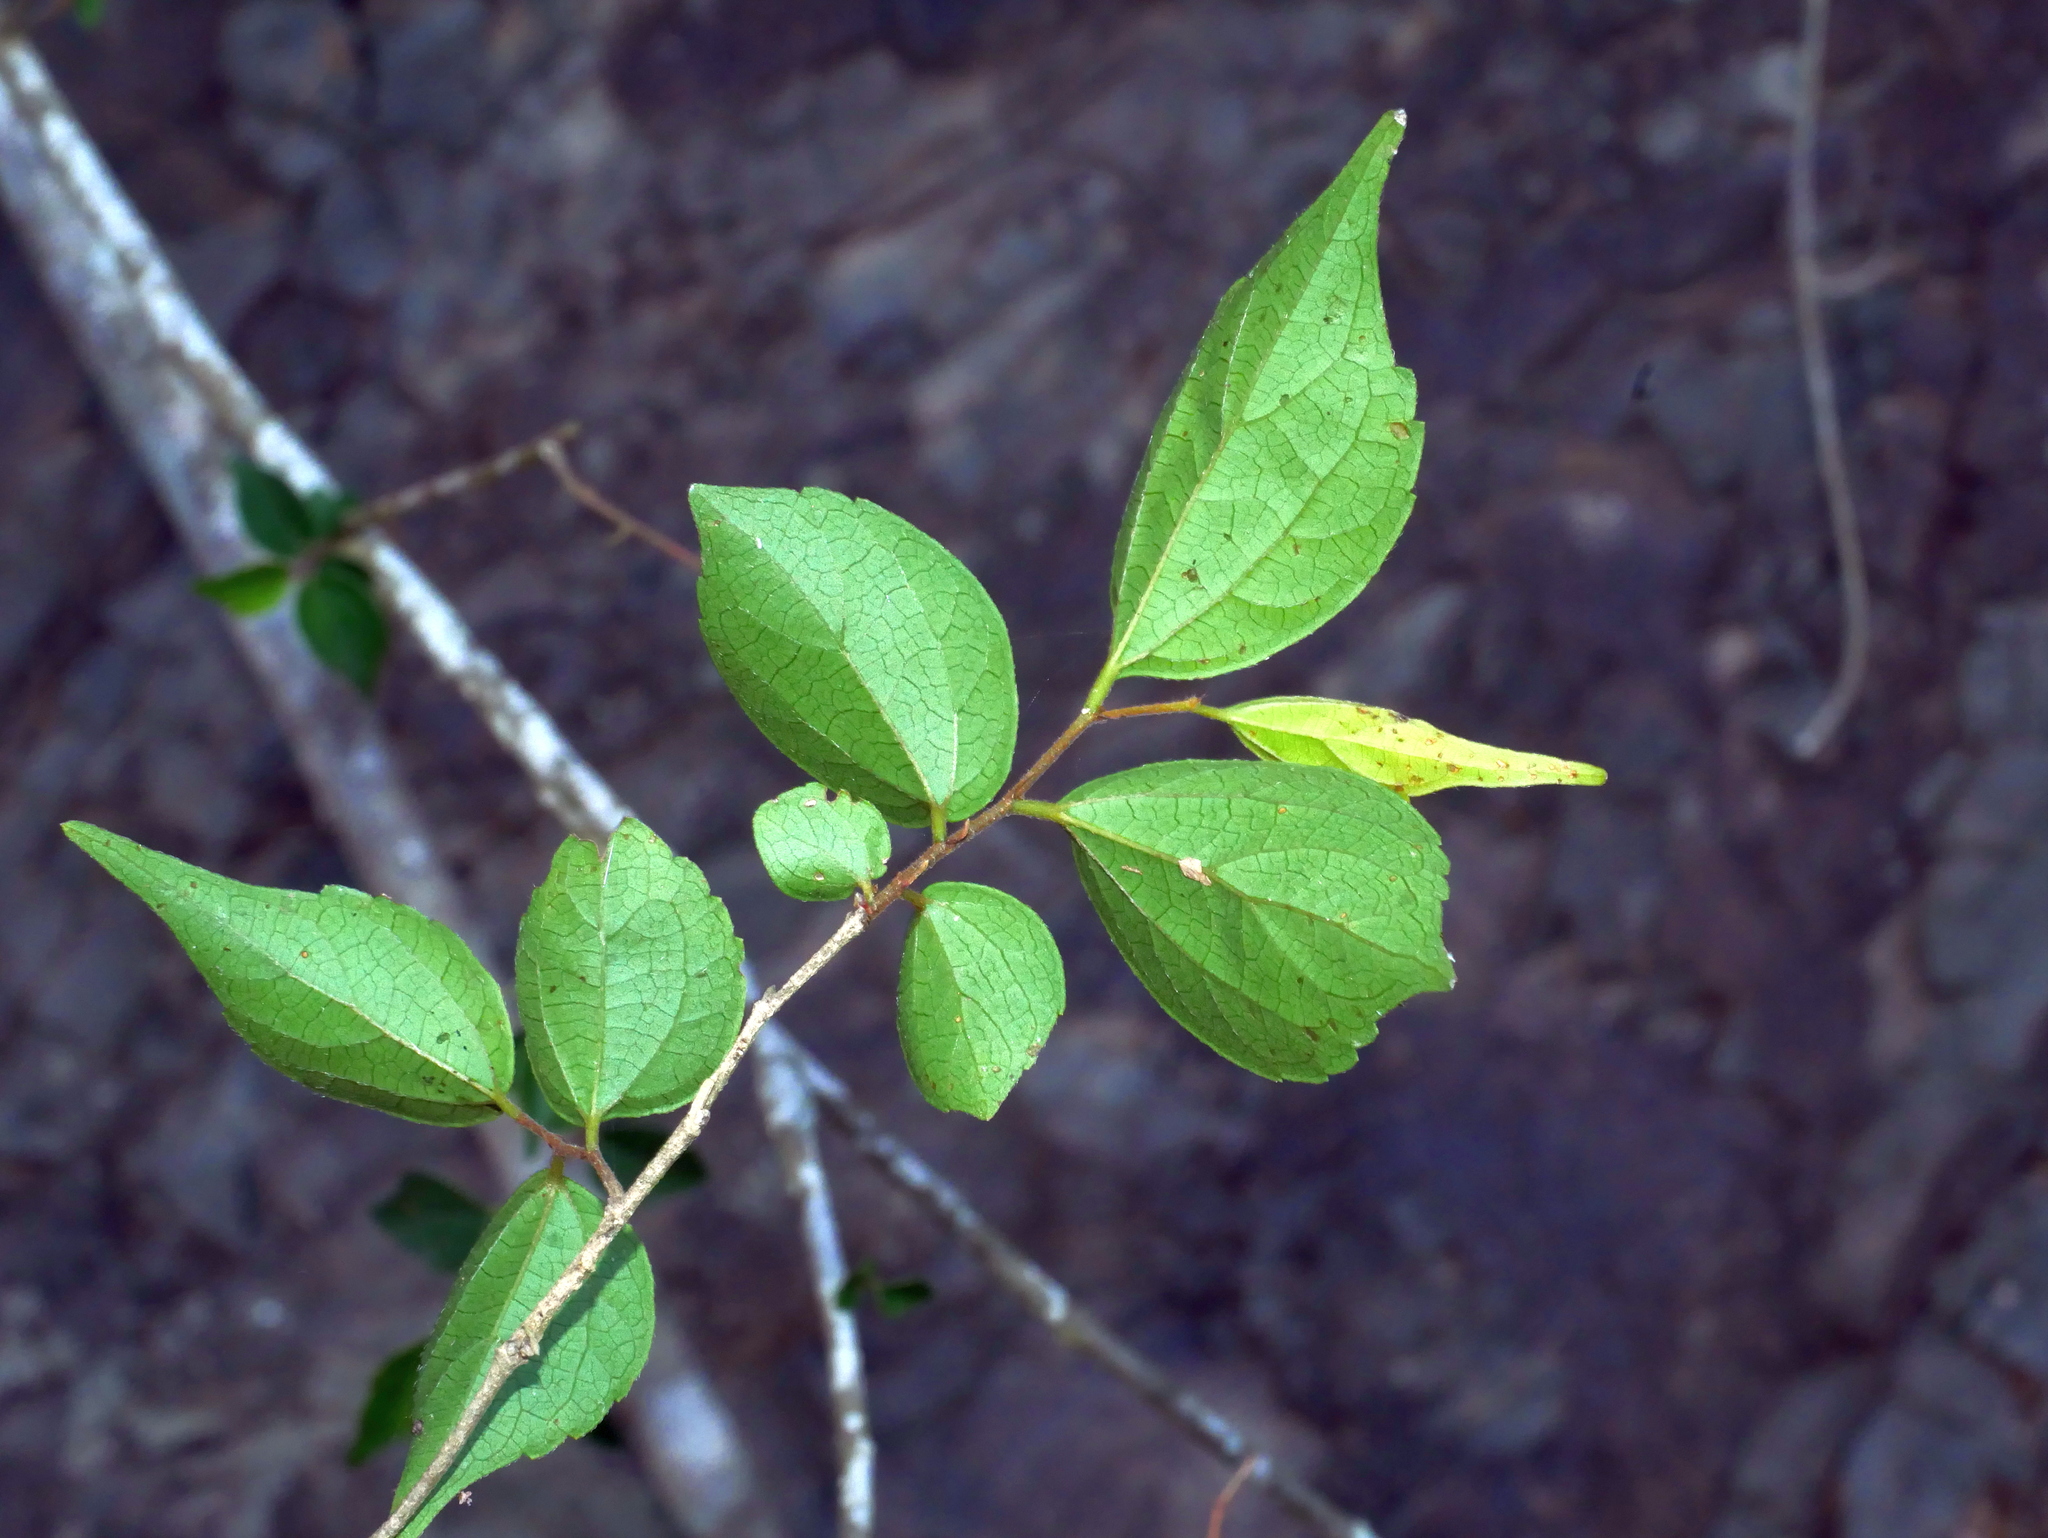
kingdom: Plantae
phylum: Tracheophyta
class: Magnoliopsida
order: Rosales
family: Cannabaceae
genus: Celtis
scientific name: Celtis biondii
